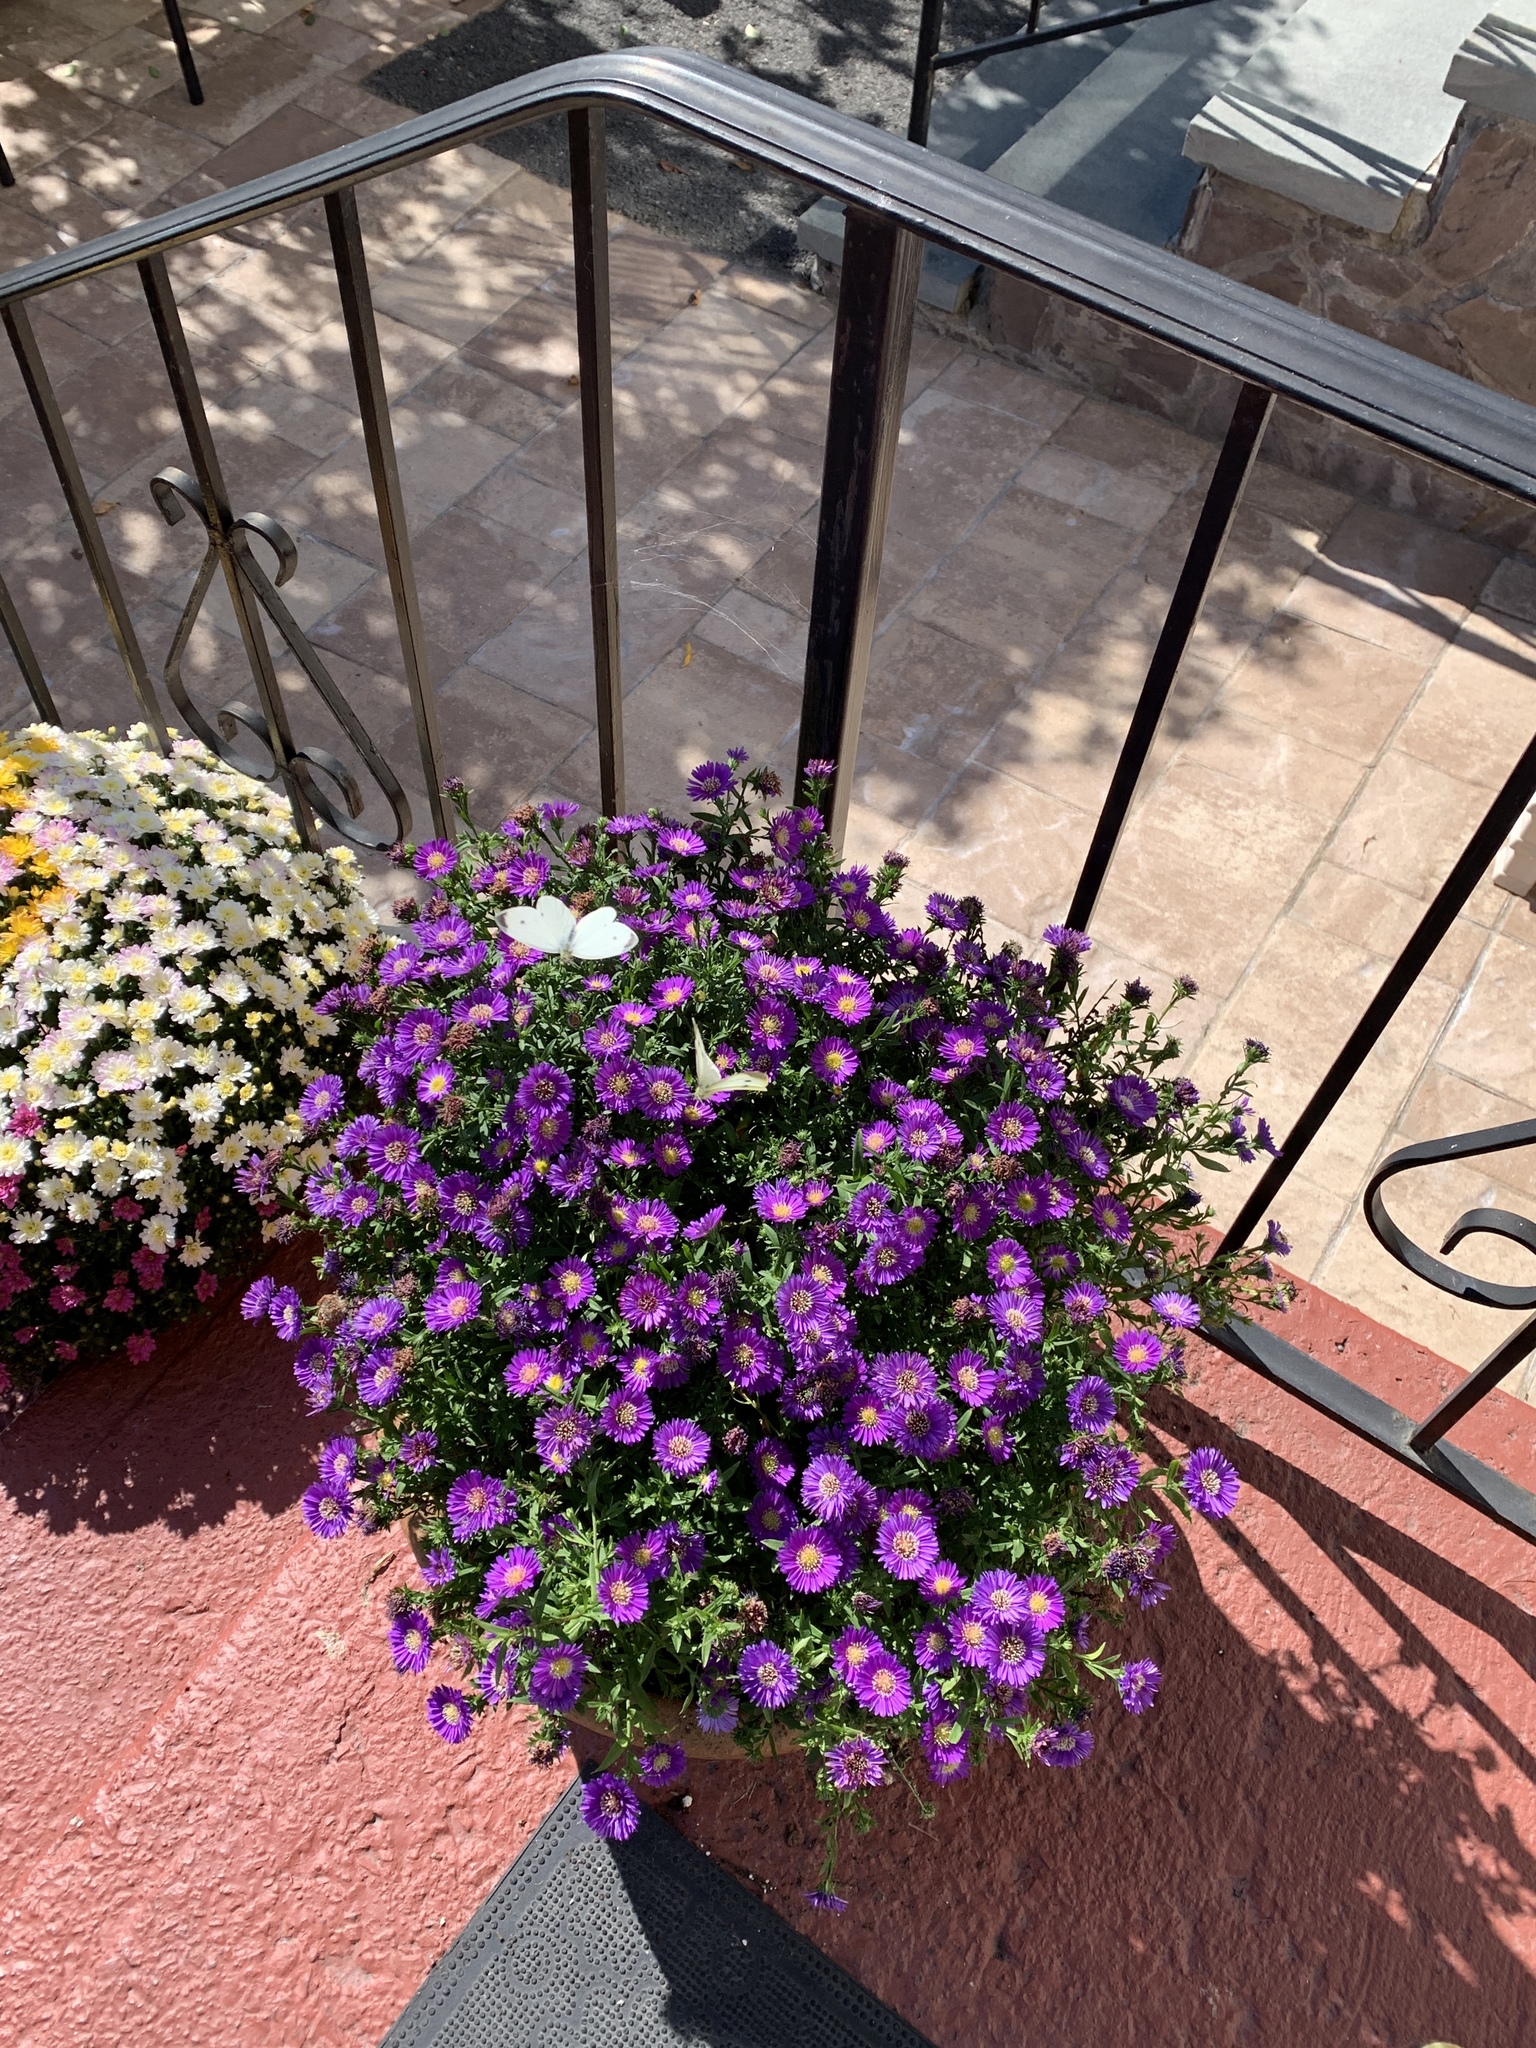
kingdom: Animalia
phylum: Arthropoda
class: Insecta
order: Lepidoptera
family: Pieridae
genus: Pieris
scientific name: Pieris rapae
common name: Small white
